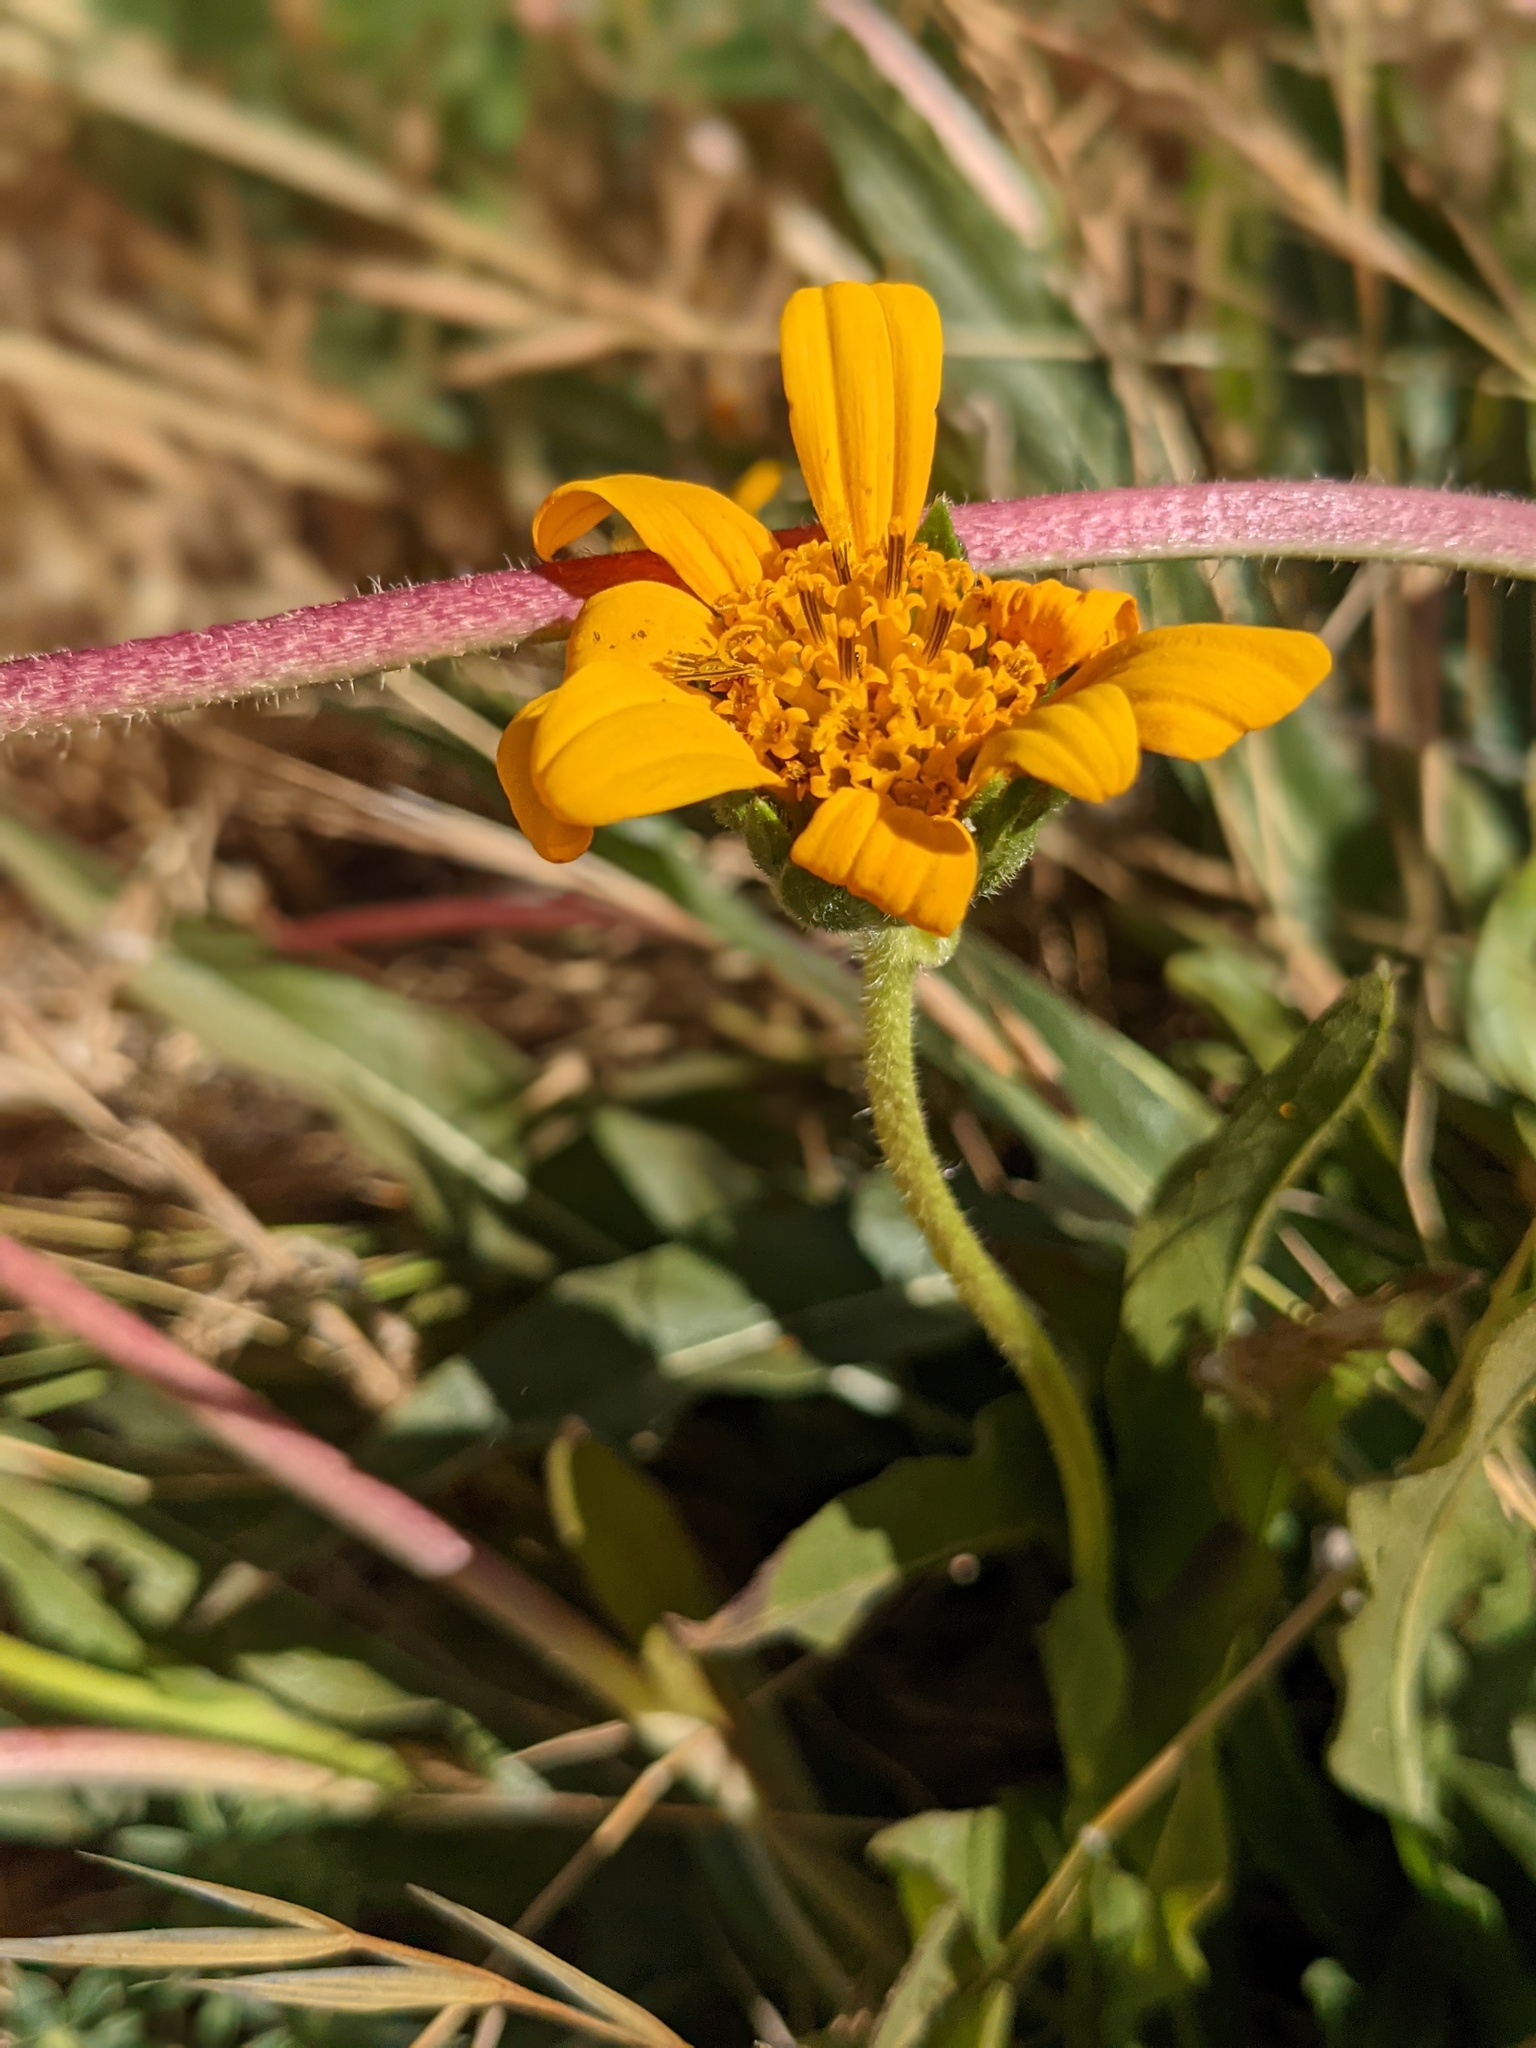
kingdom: Plantae
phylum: Tracheophyta
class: Magnoliopsida
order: Asterales
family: Asteraceae
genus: Wyethia
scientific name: Wyethia angustifolia
